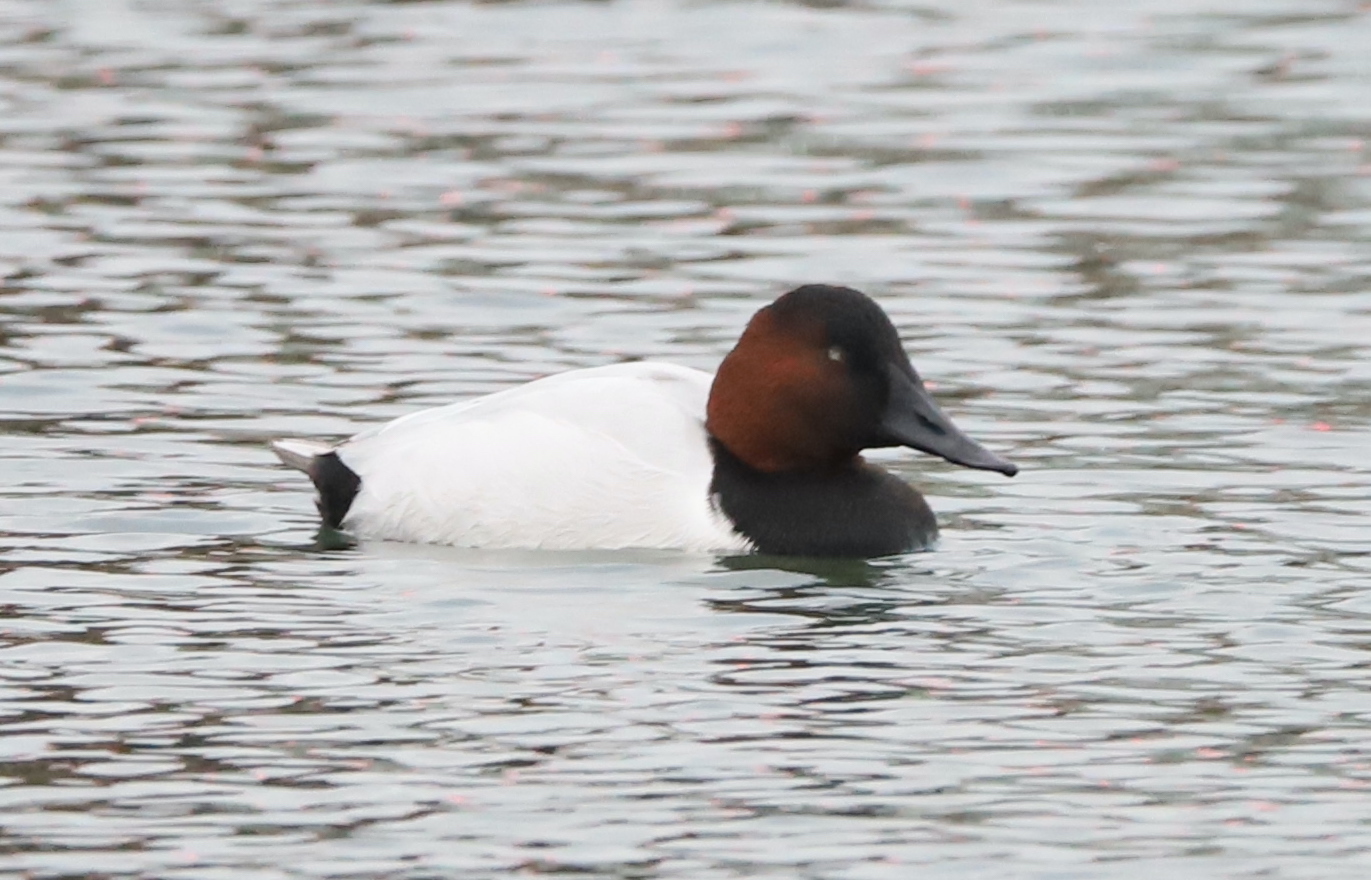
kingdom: Animalia
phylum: Chordata
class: Aves
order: Anseriformes
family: Anatidae
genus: Aythya
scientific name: Aythya valisineria
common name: Canvasback
